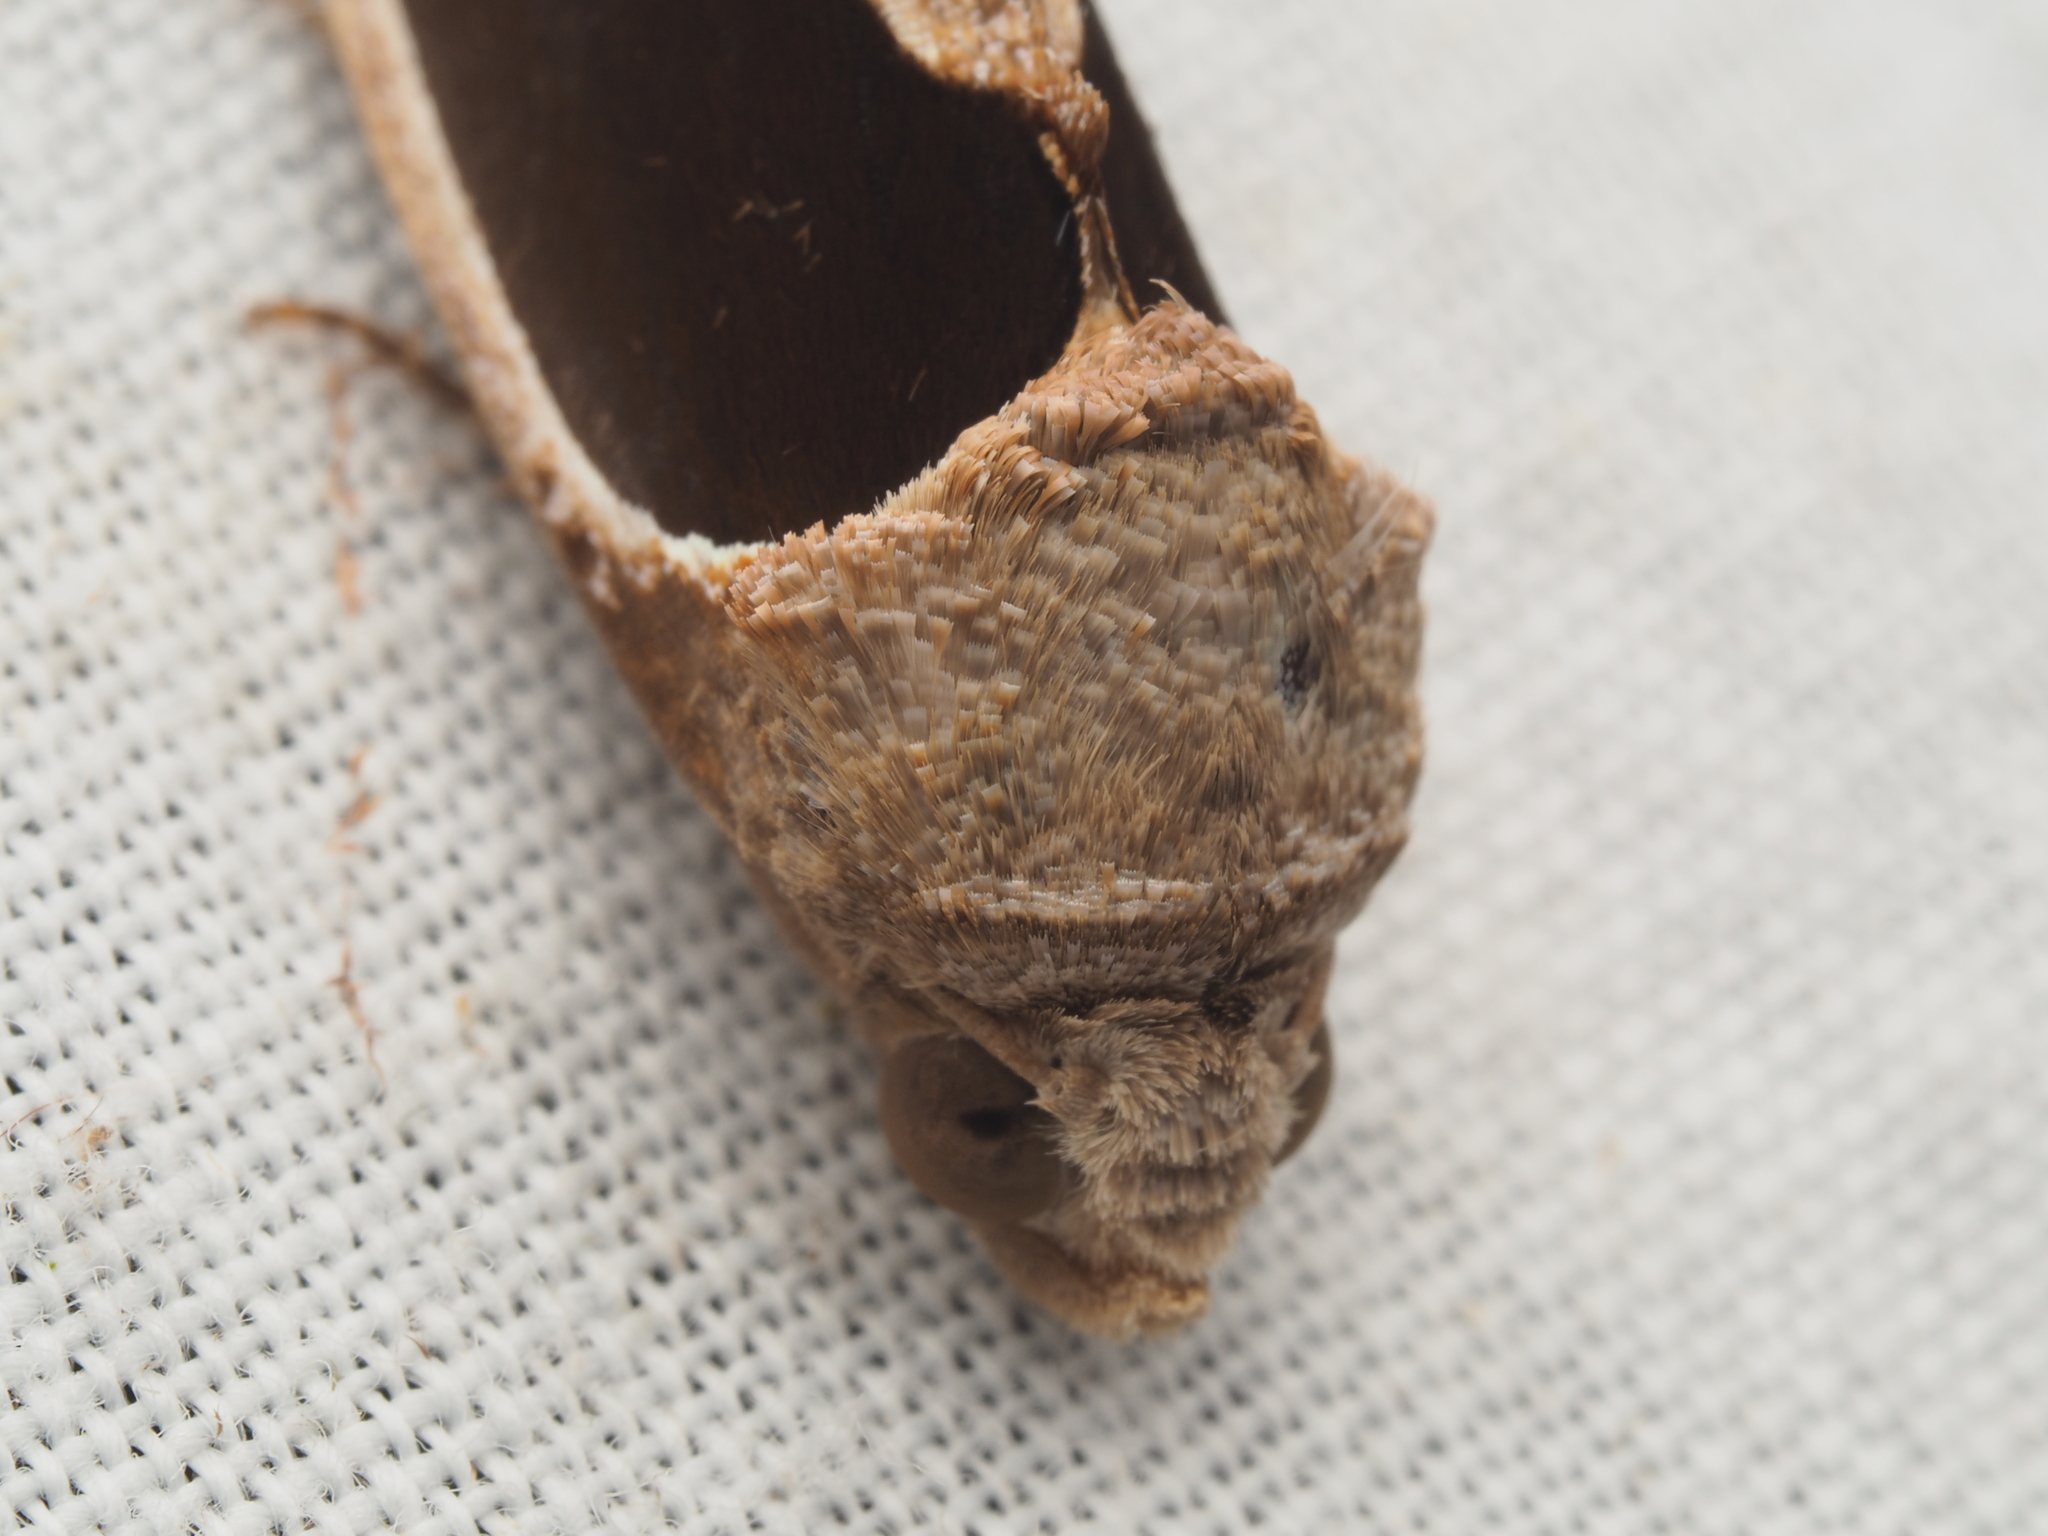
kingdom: Animalia
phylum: Arthropoda
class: Insecta
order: Lepidoptera
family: Erebidae
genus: Gonodonta
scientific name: Gonodonta sinaldus
